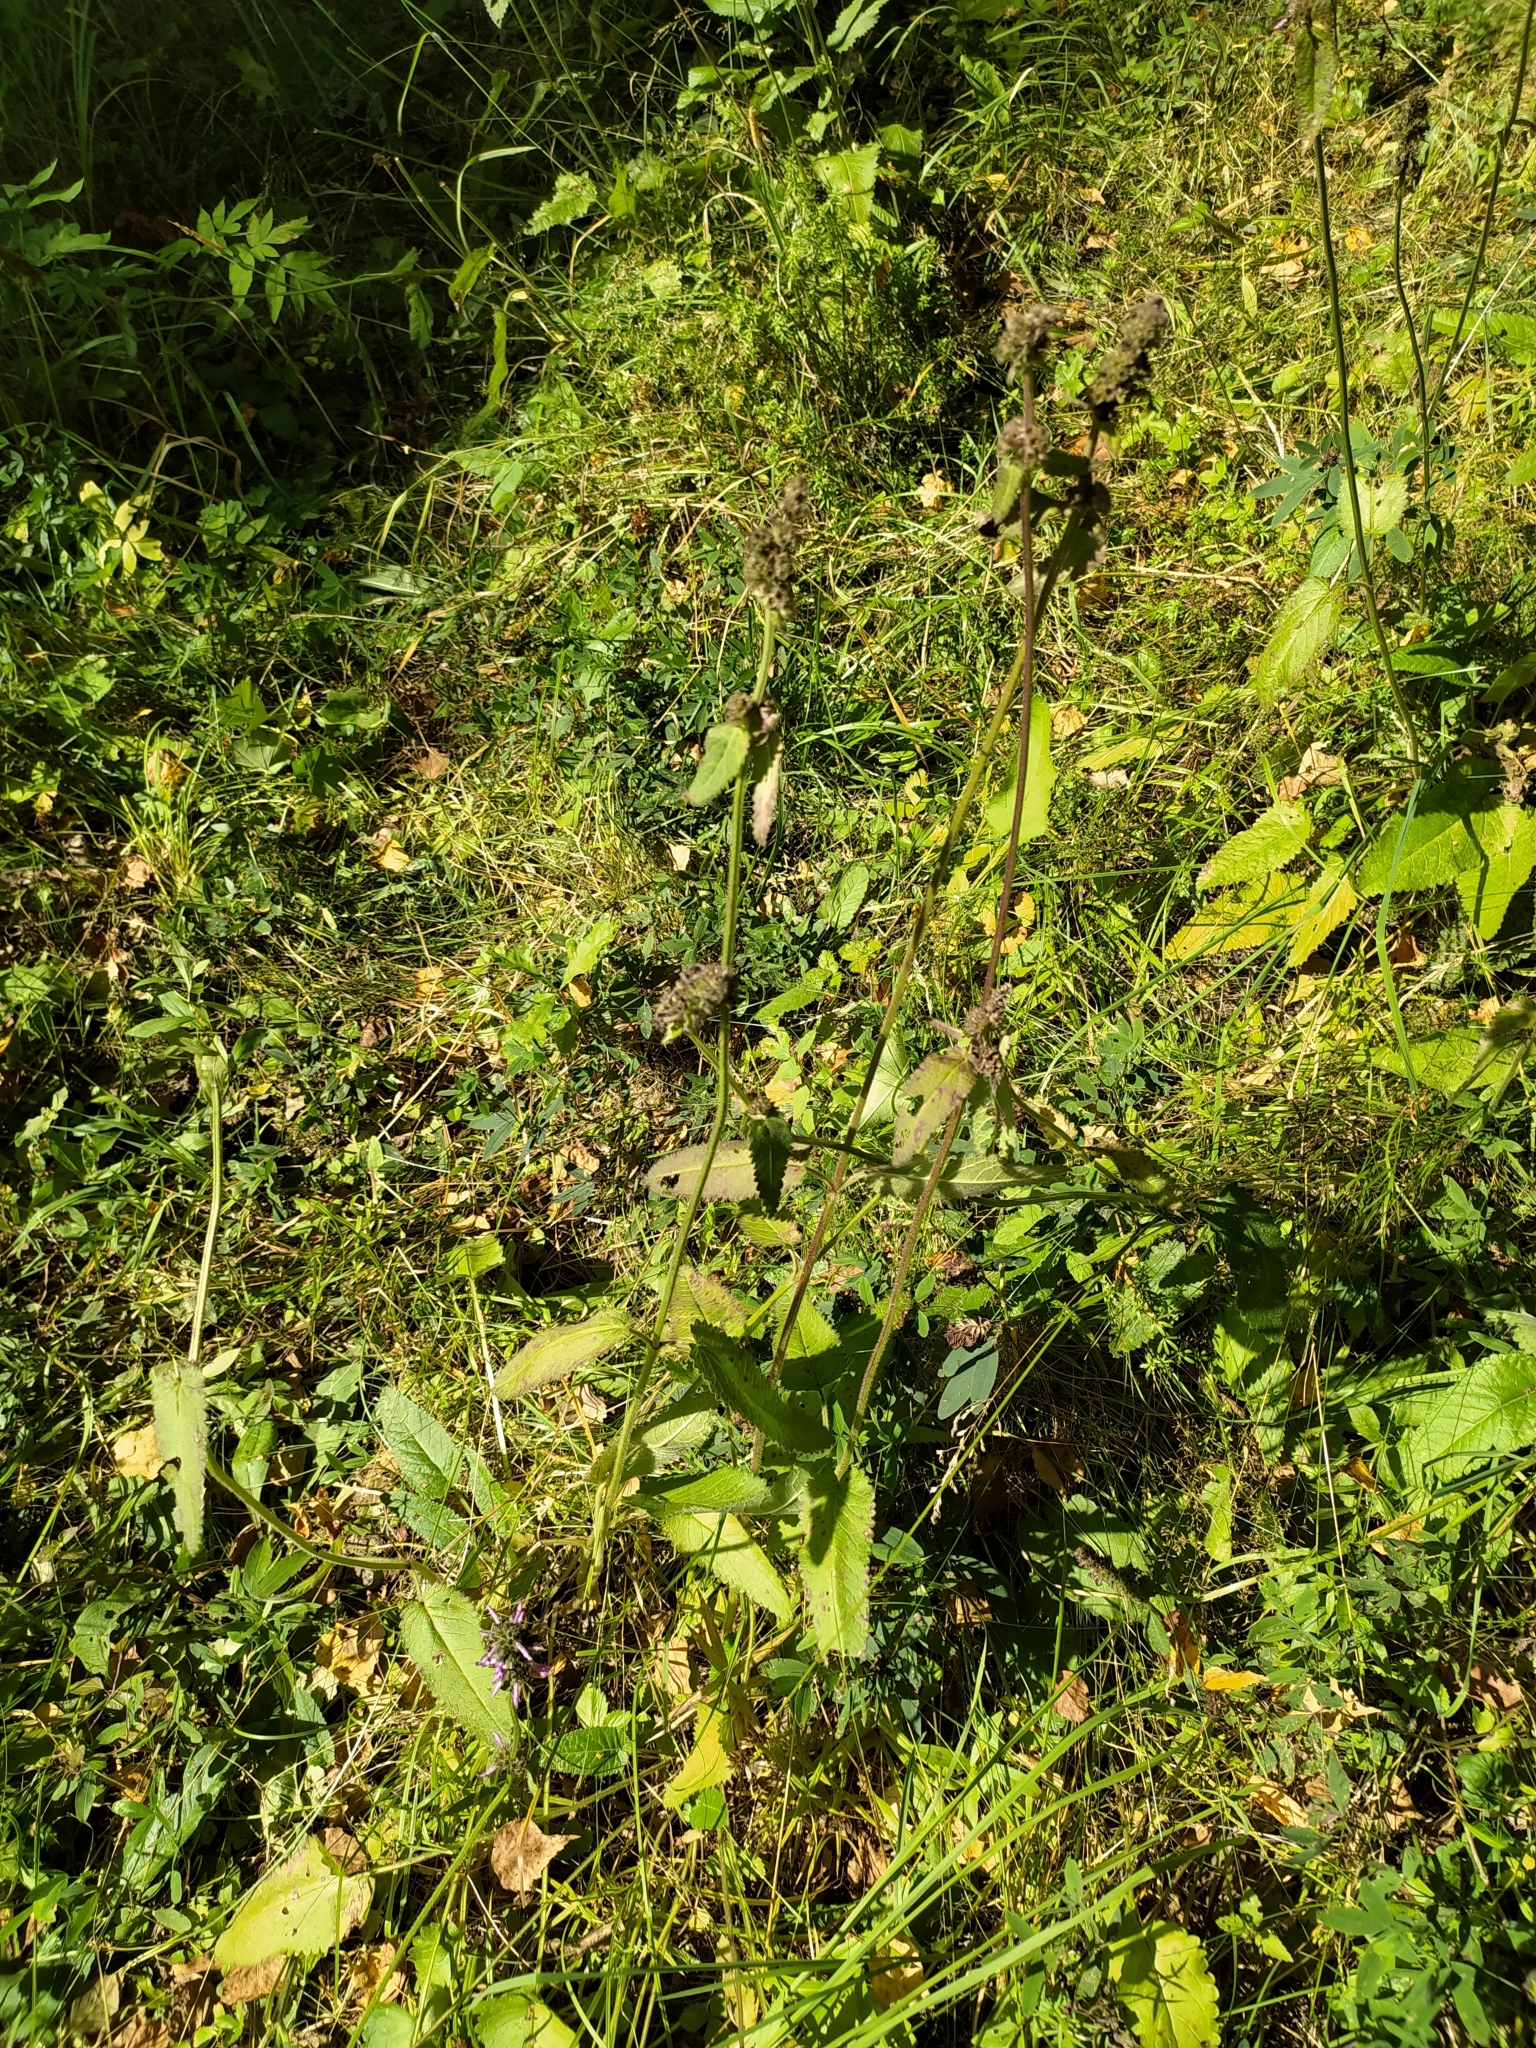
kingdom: Plantae
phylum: Tracheophyta
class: Magnoliopsida
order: Lamiales
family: Lamiaceae
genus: Betonica
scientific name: Betonica officinalis
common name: Bishop's-wort
